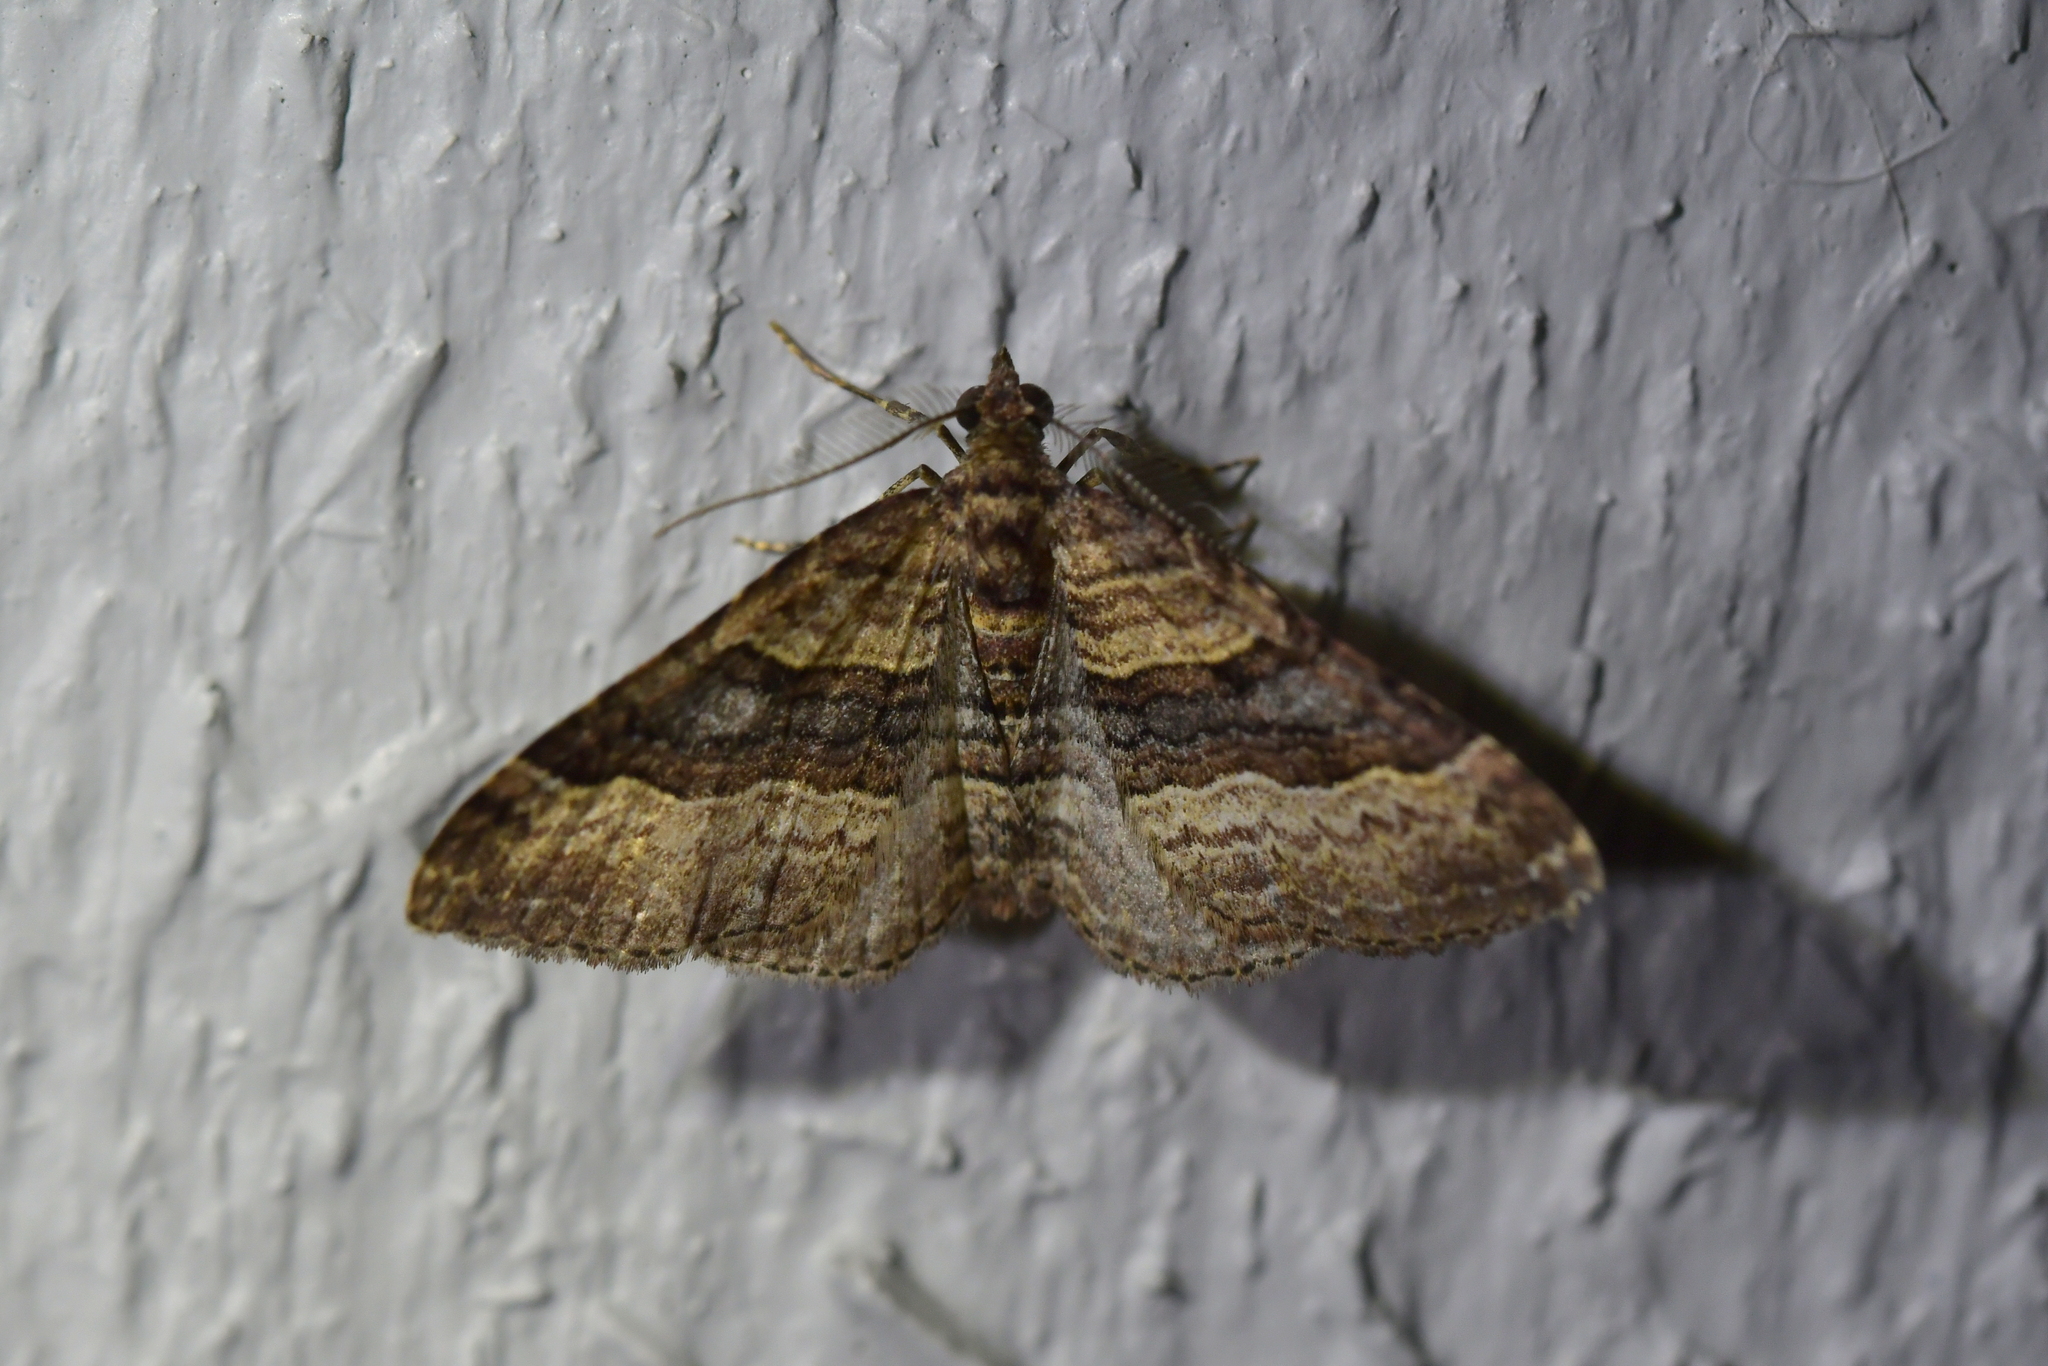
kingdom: Animalia
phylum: Arthropoda
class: Insecta
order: Lepidoptera
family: Geometridae
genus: Epyaxa
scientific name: Epyaxa lucidata
